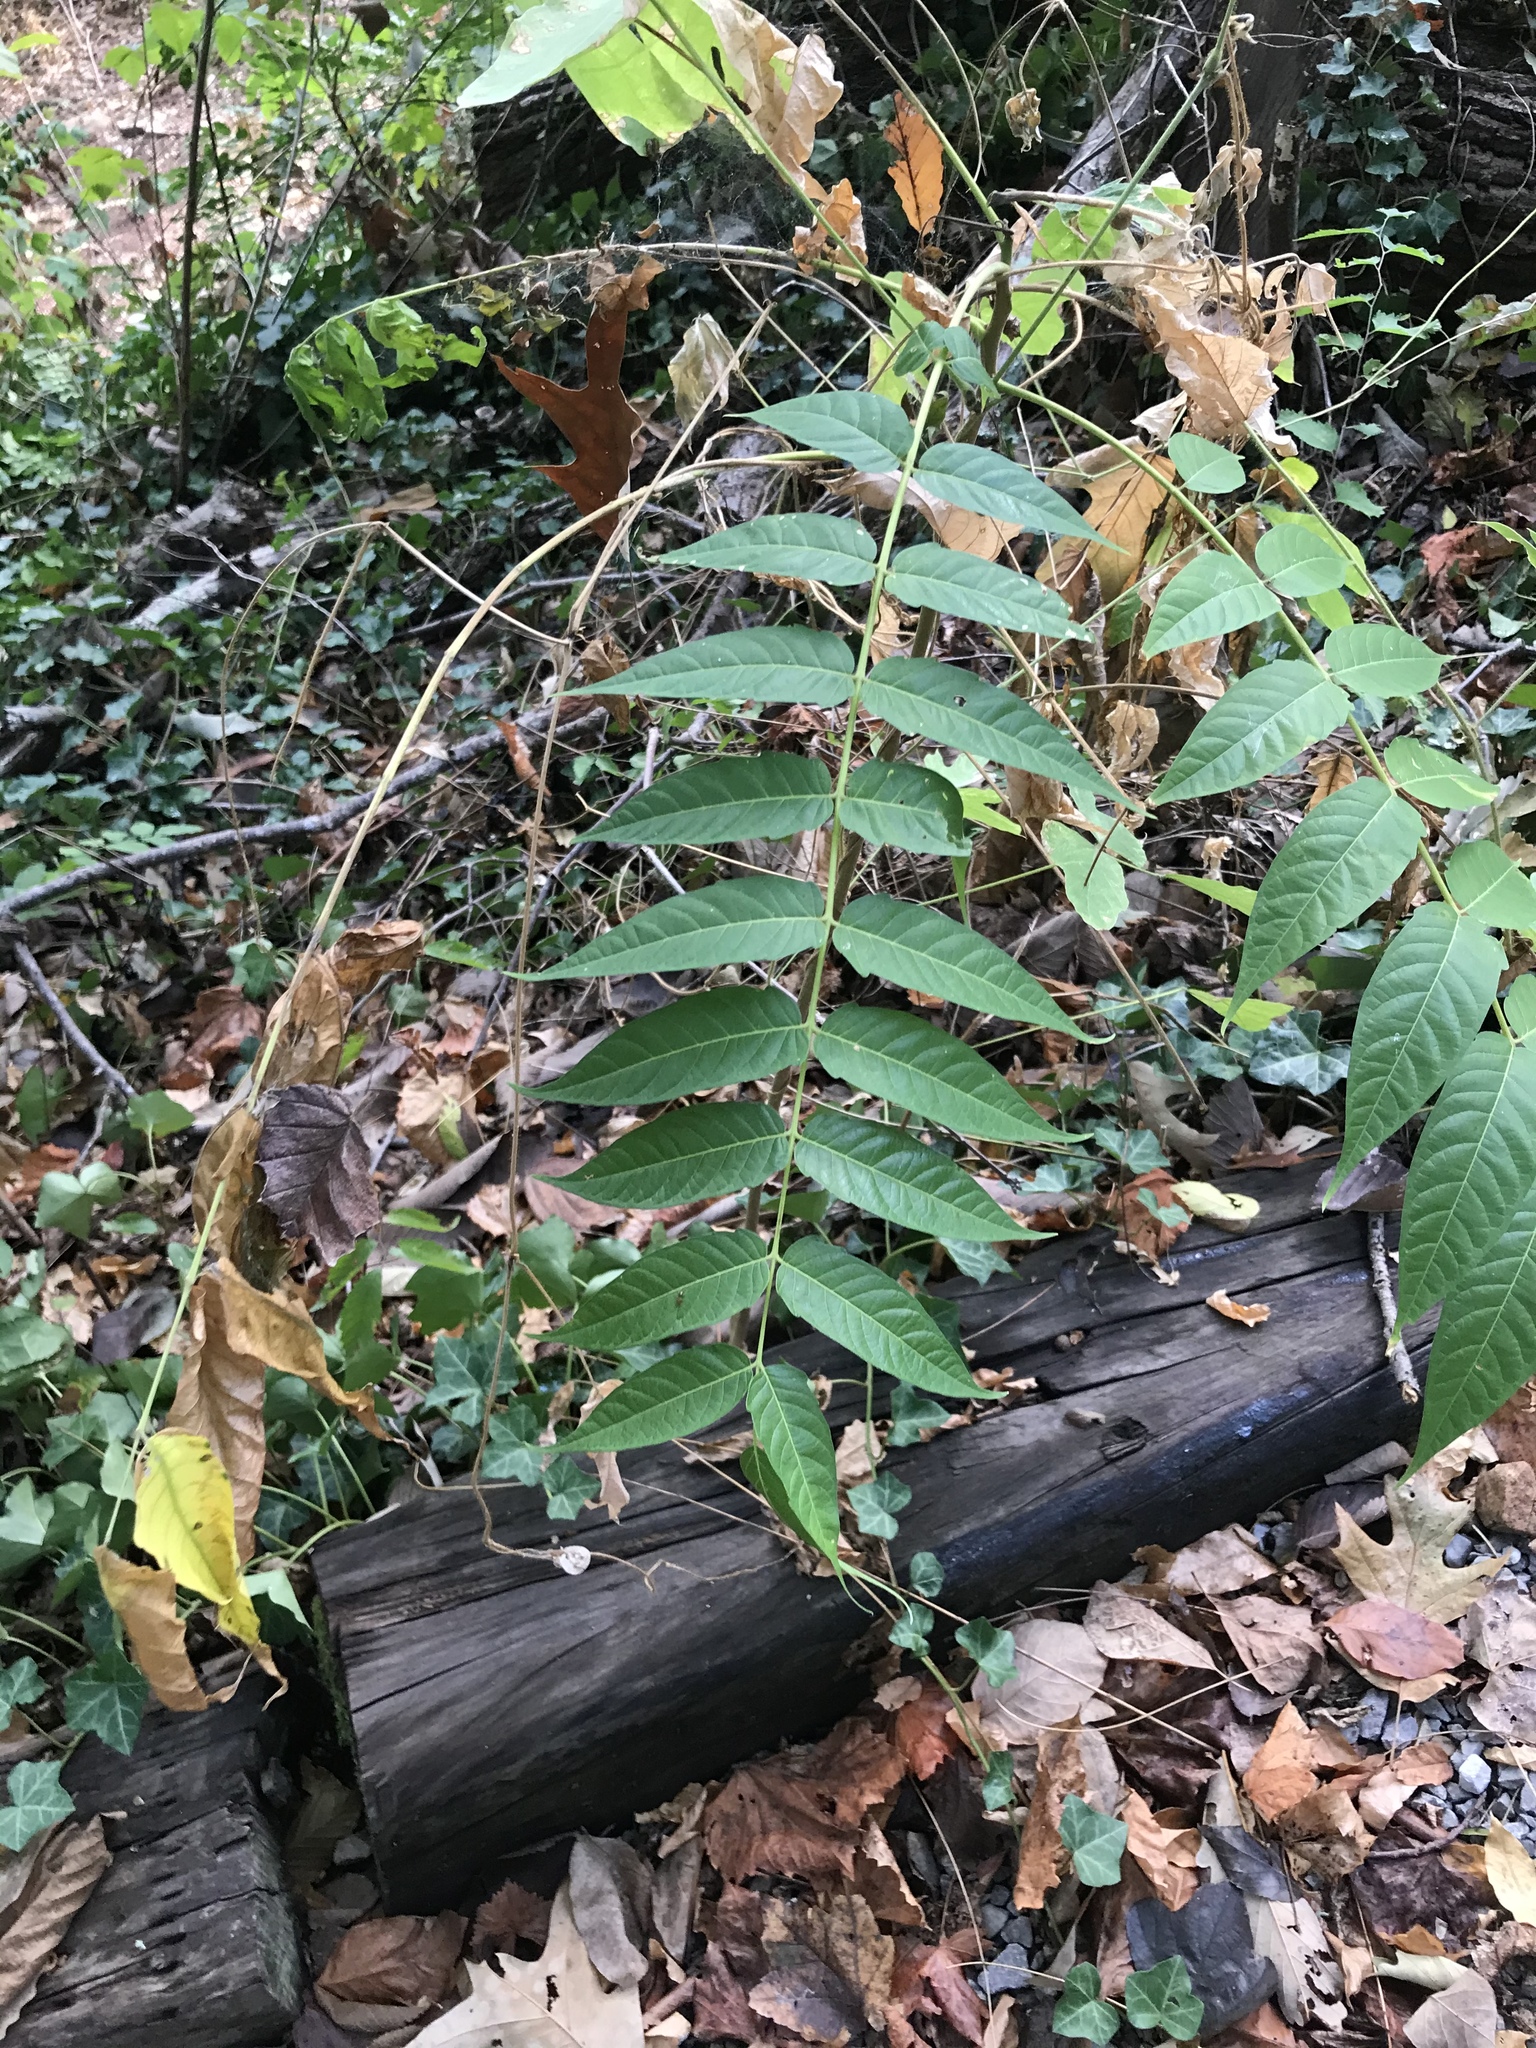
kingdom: Plantae
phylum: Tracheophyta
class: Magnoliopsida
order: Sapindales
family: Simaroubaceae
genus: Ailanthus
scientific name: Ailanthus altissima
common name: Tree-of-heaven
